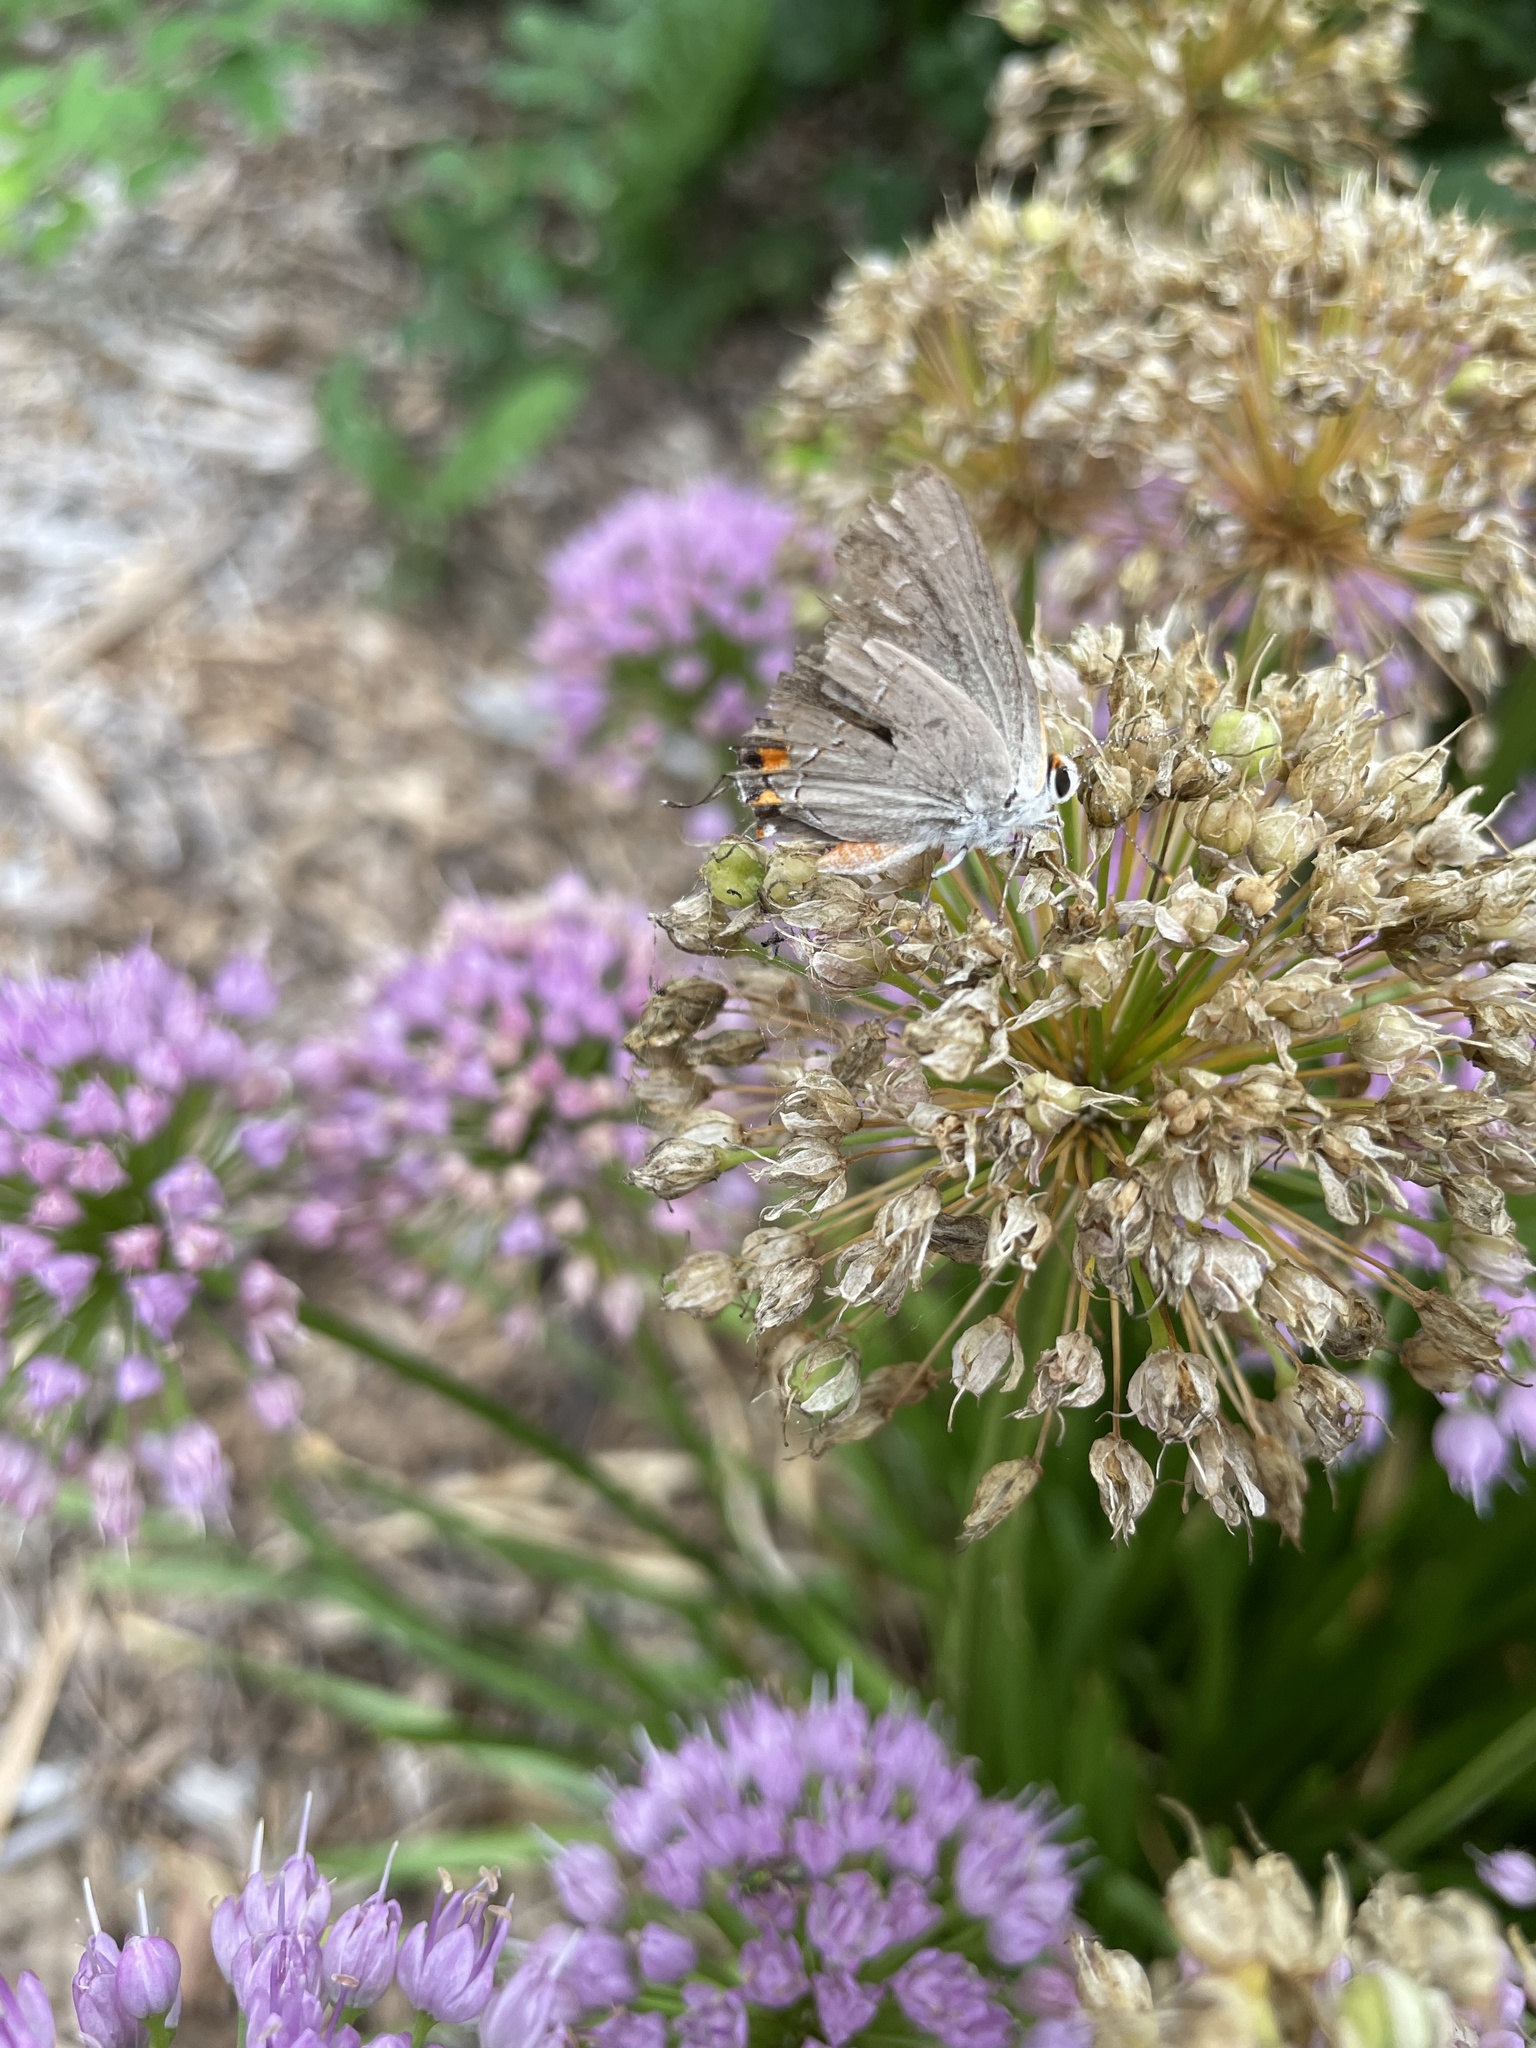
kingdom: Animalia
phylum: Arthropoda
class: Insecta
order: Lepidoptera
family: Lycaenidae
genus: Strymon
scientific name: Strymon melinus
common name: Gray hairstreak
